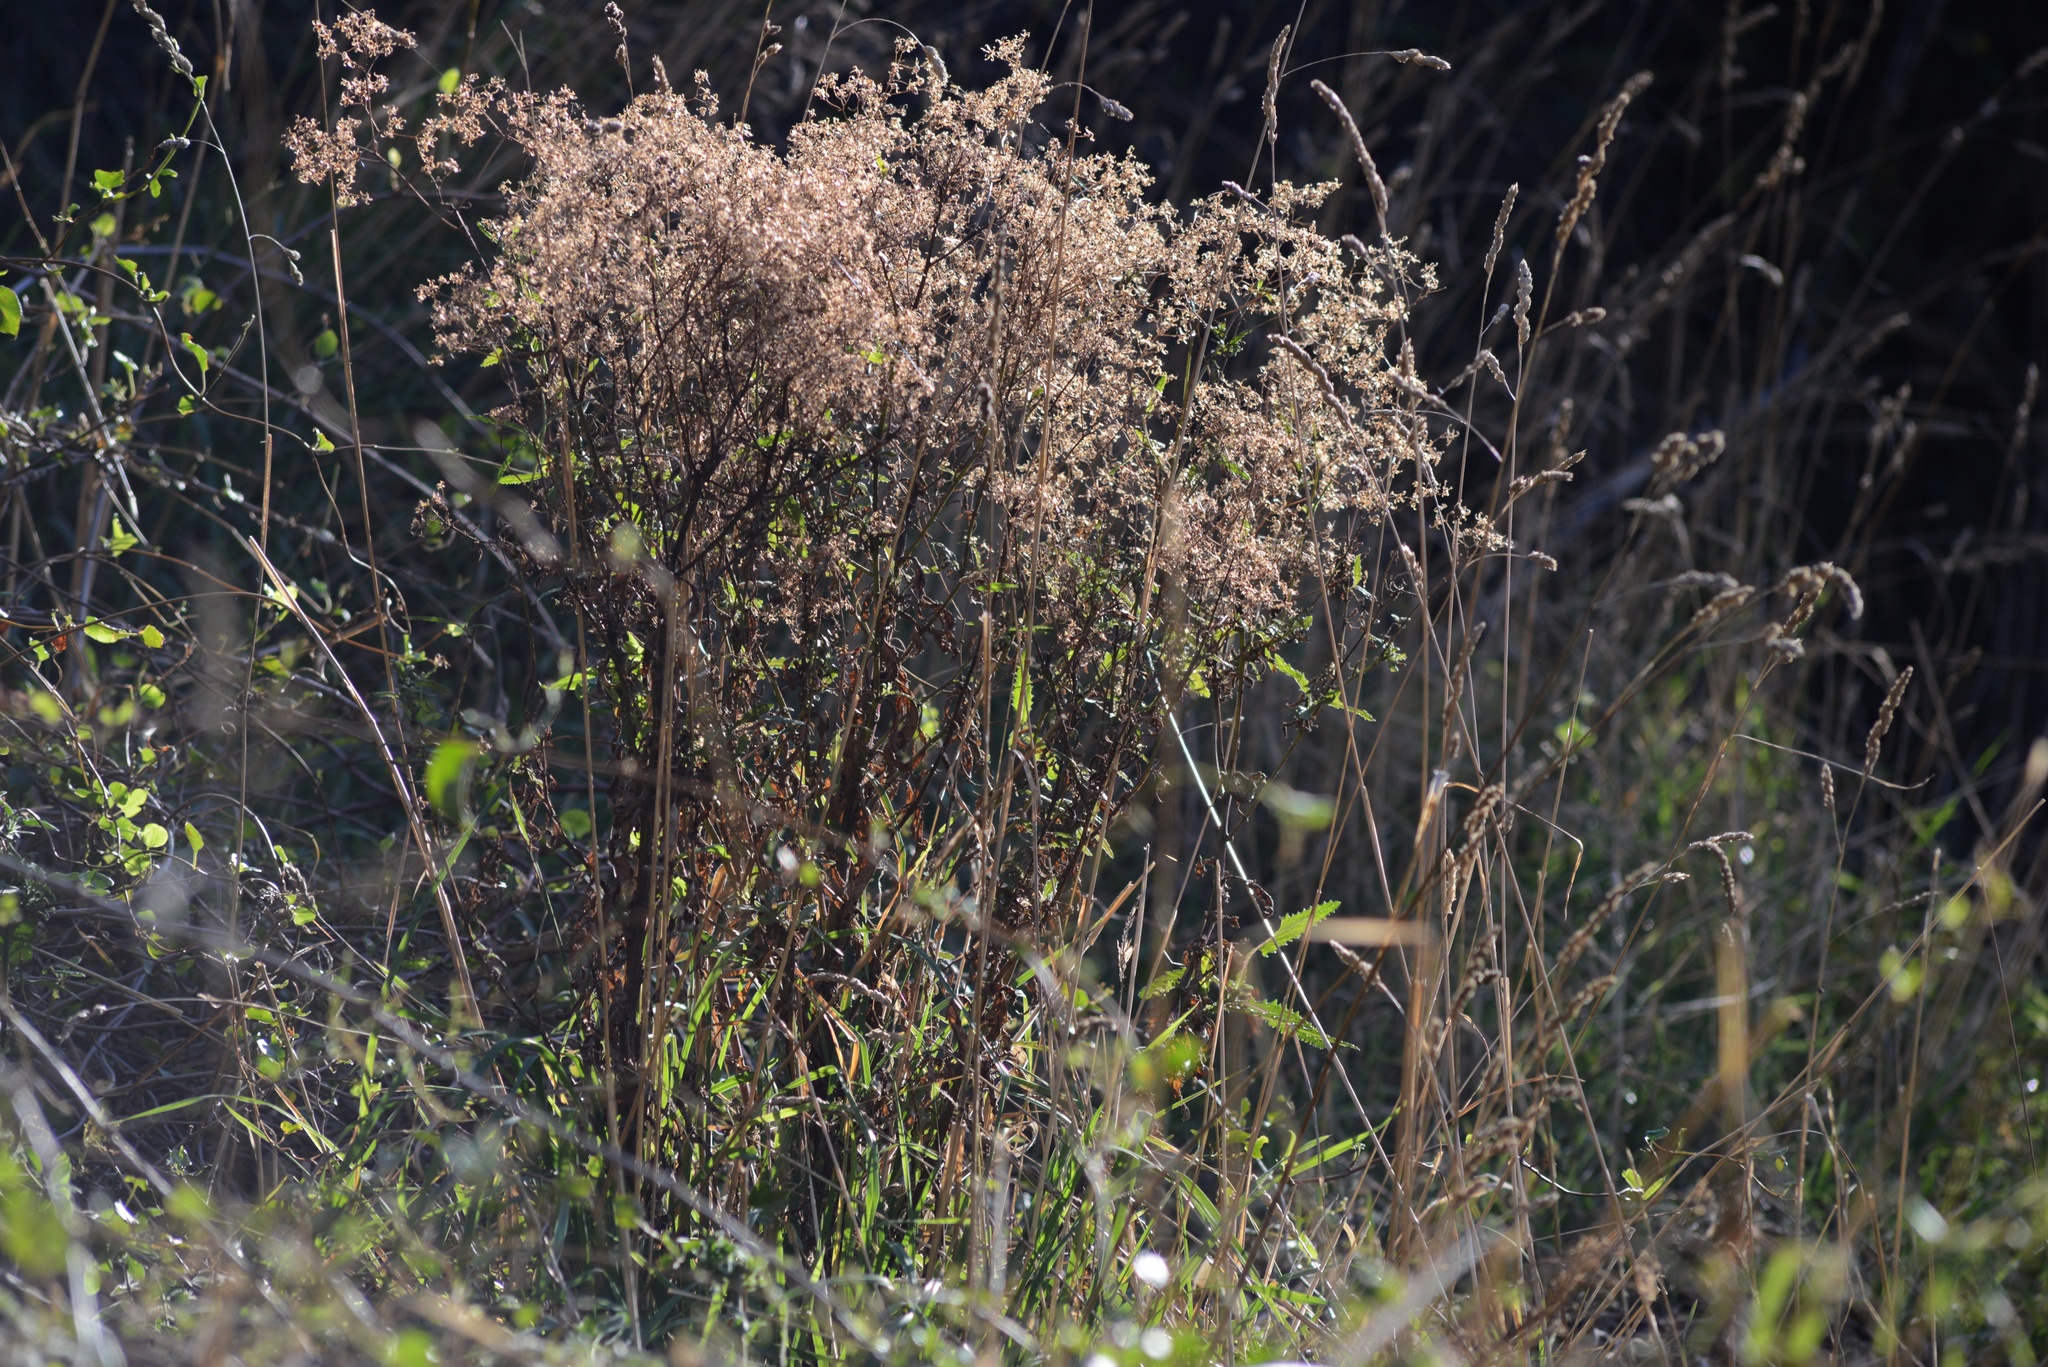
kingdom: Plantae
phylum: Tracheophyta
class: Magnoliopsida
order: Asterales
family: Asteraceae
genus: Senecio
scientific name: Senecio minimus
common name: Toothed fireweed
